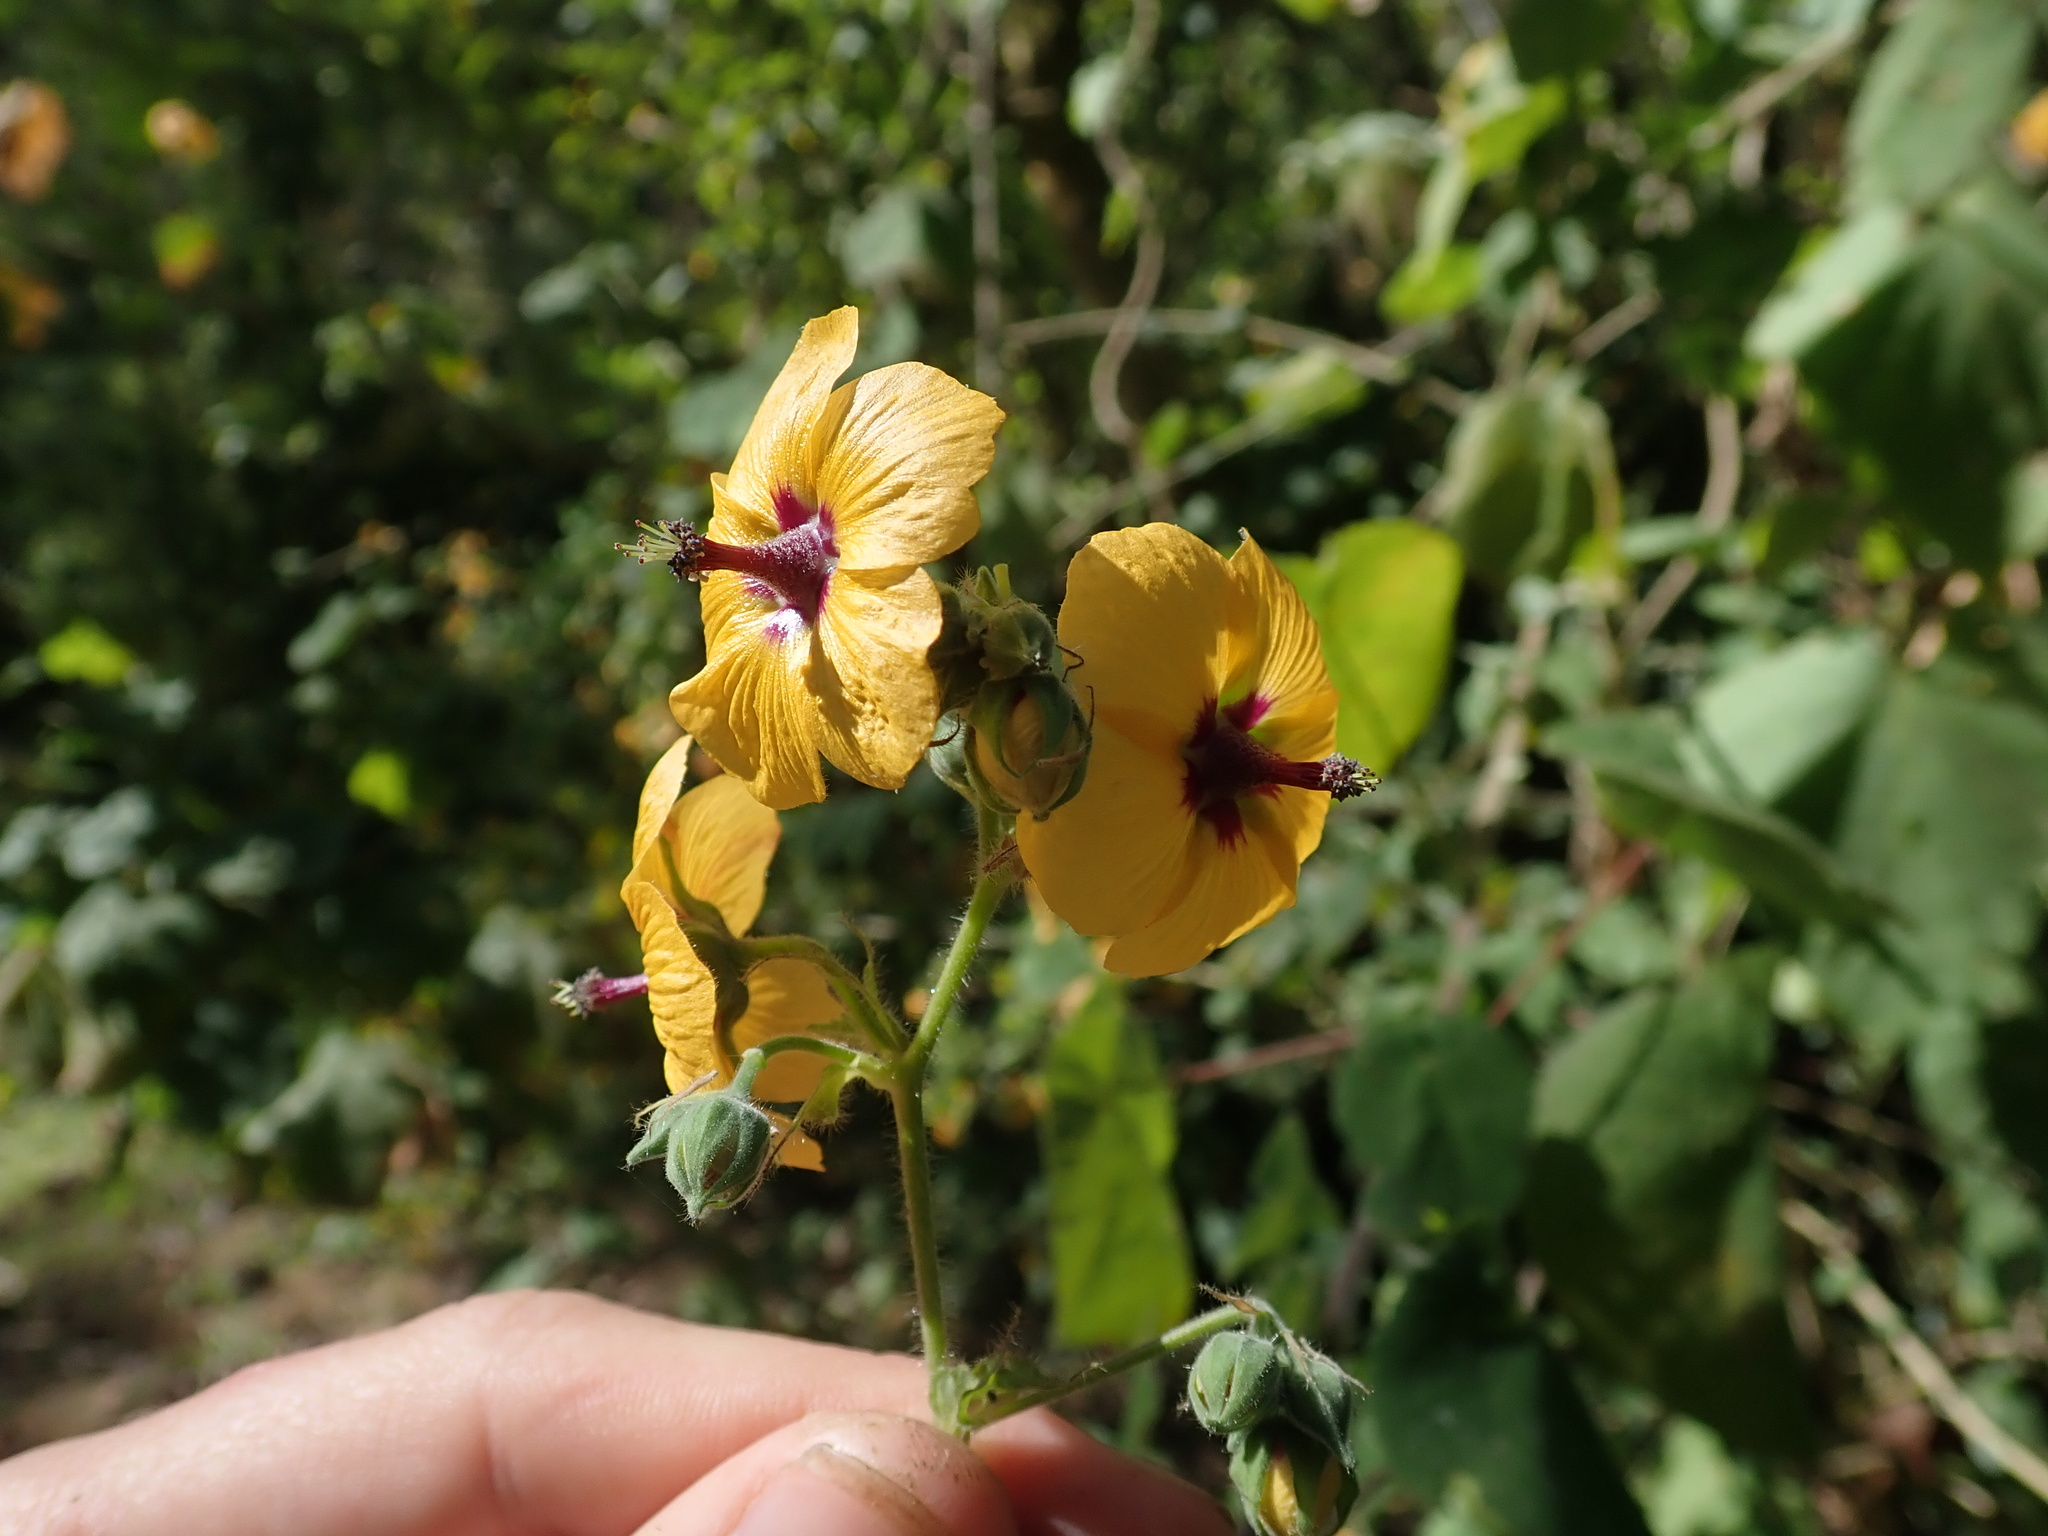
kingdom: Plantae
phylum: Tracheophyta
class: Magnoliopsida
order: Malvales
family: Malvaceae
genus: Abutilon
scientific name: Abutilon divaricatum
